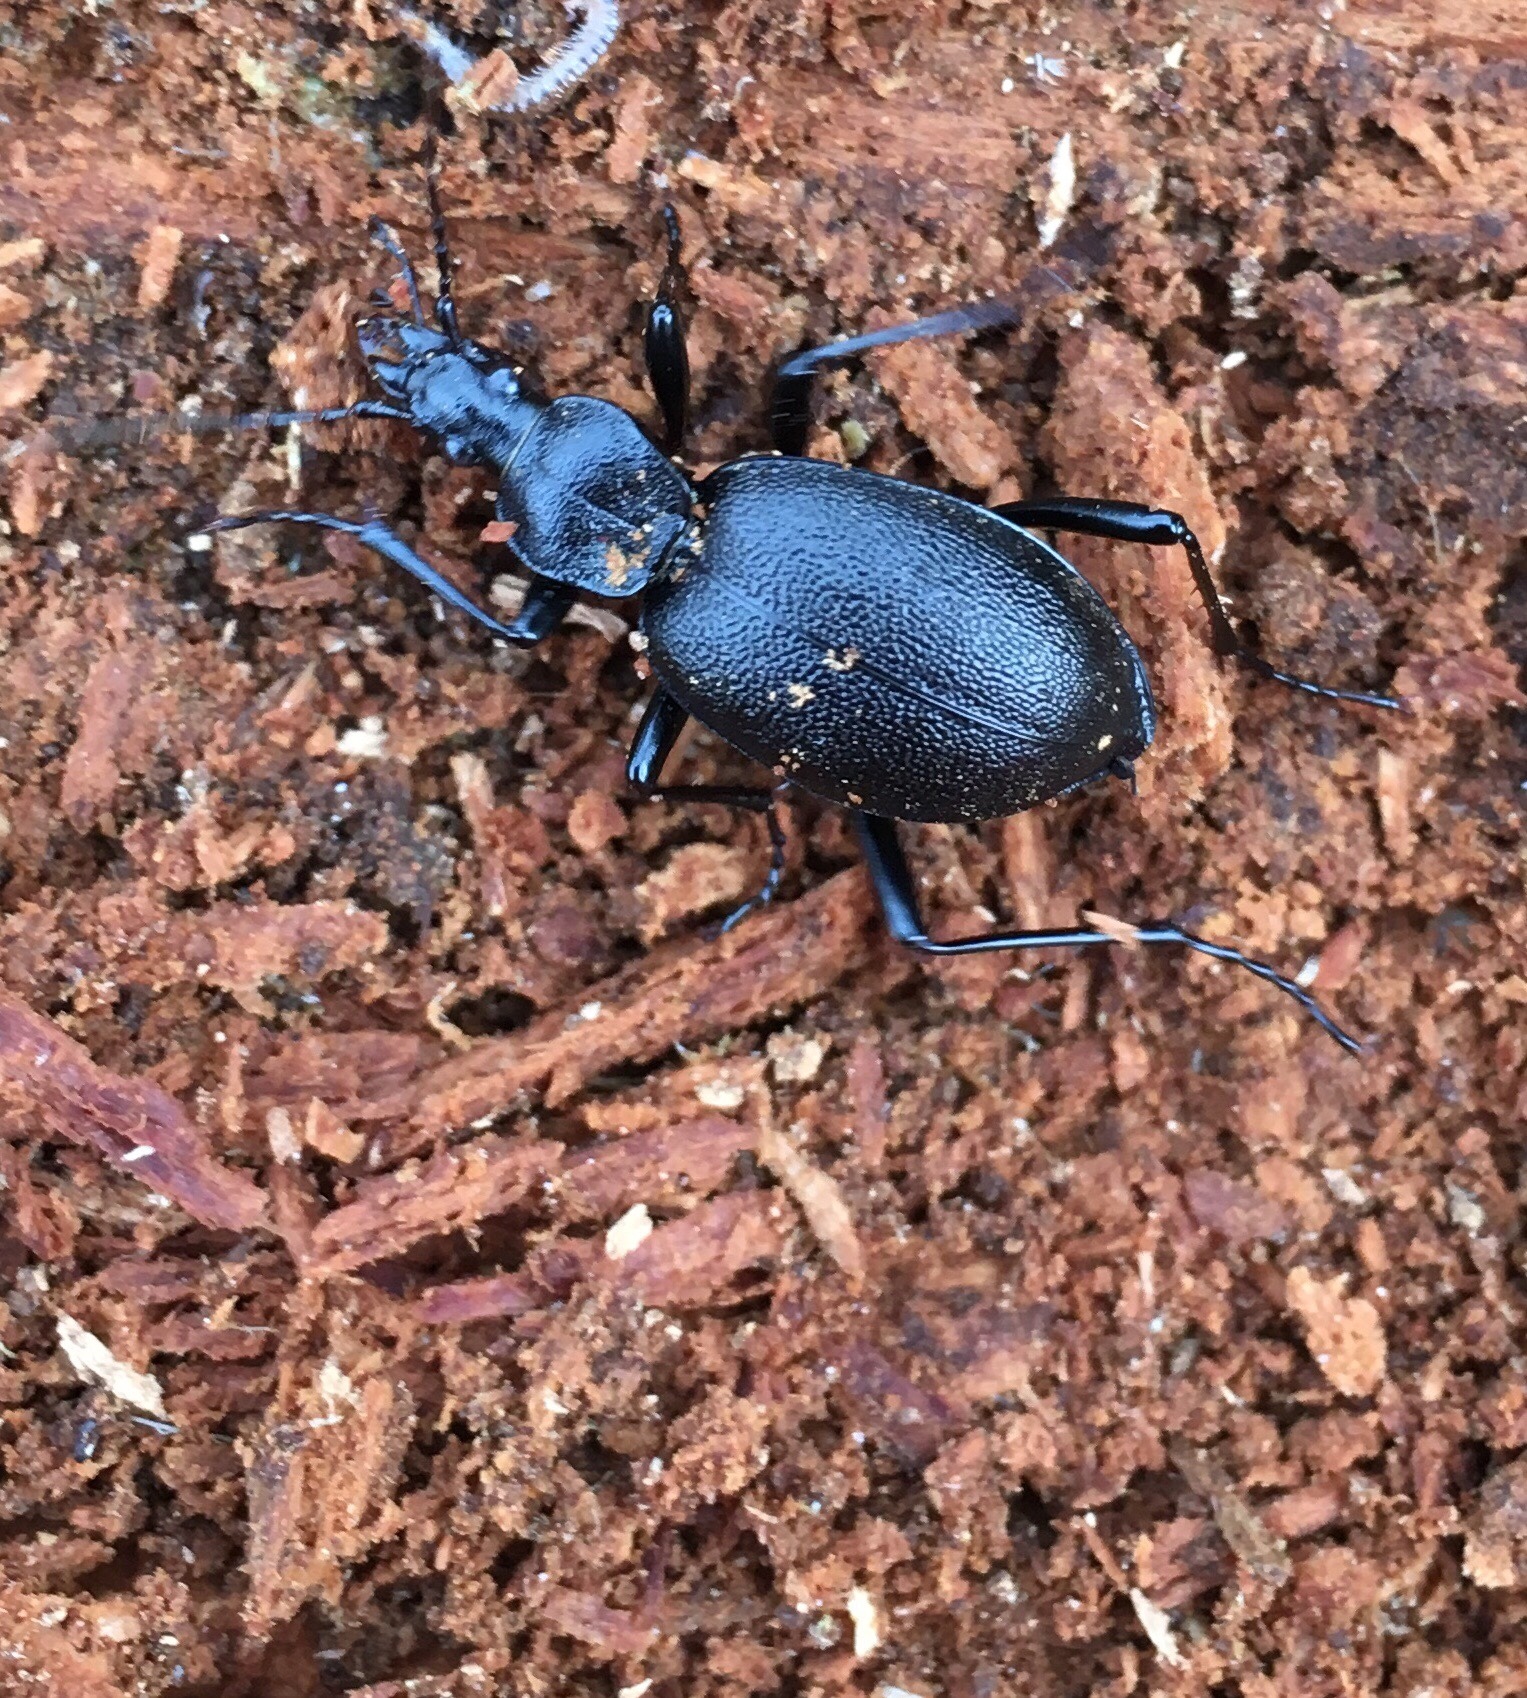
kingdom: Animalia
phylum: Arthropoda
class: Insecta
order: Coleoptera
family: Carabidae
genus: Cychrus
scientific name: Cychrus caraboides
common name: Snail hunter
